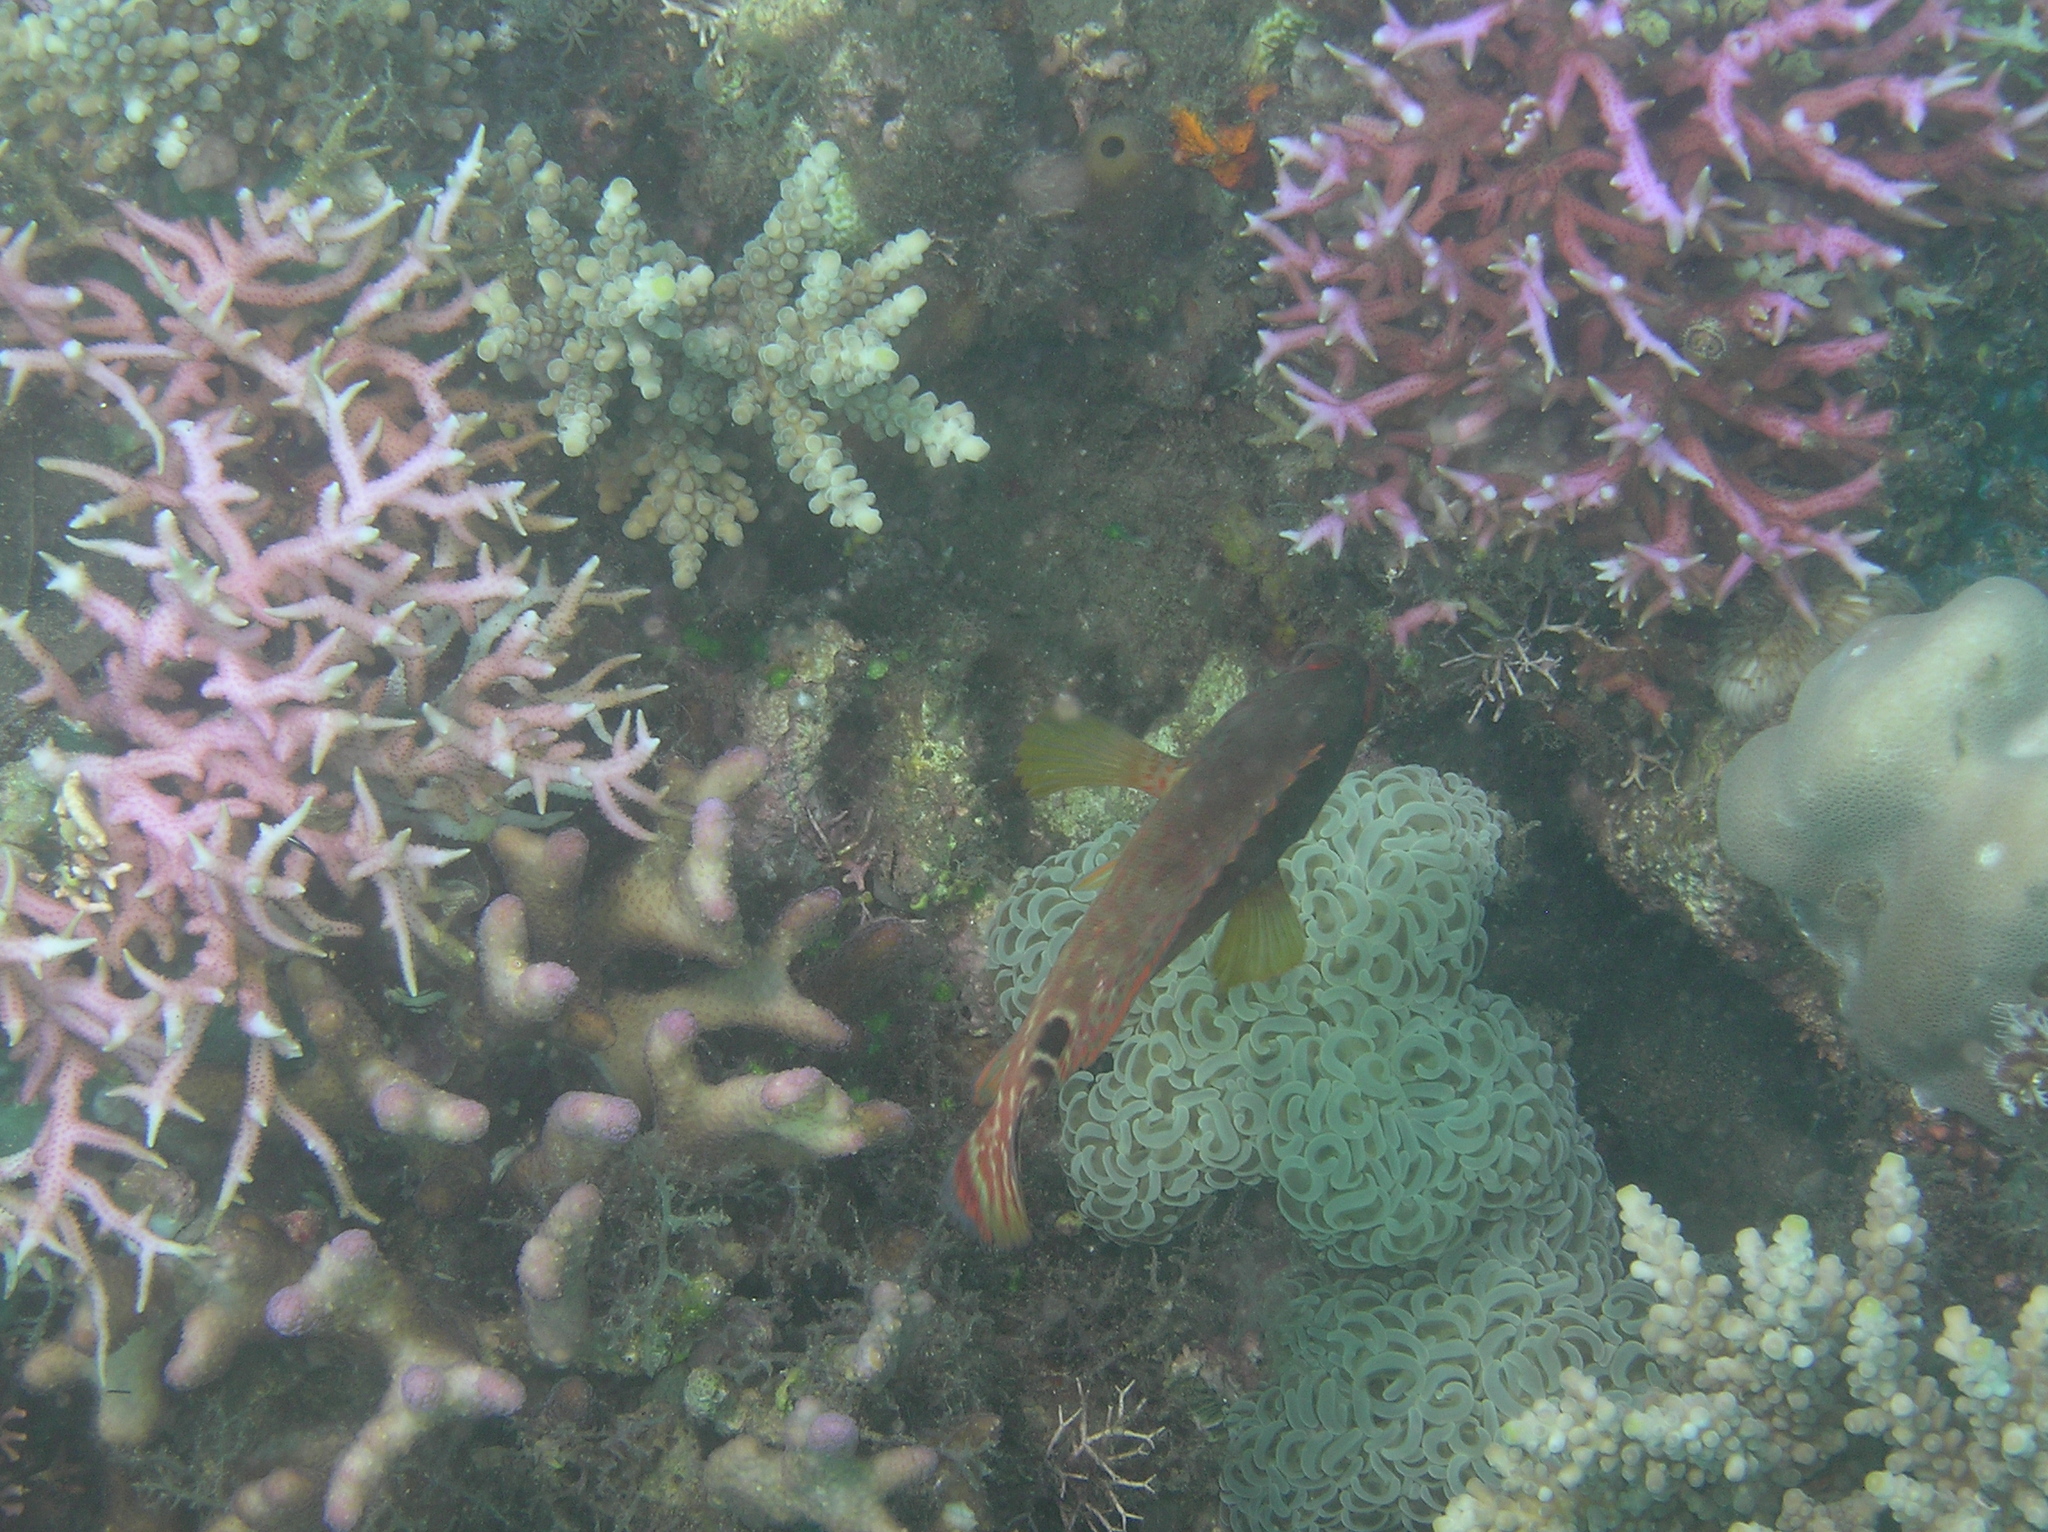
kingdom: Animalia
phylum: Chordata
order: Perciformes
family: Serranidae
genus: Cephalopholis
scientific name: Cephalopholis leopardus
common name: Leopard hind
